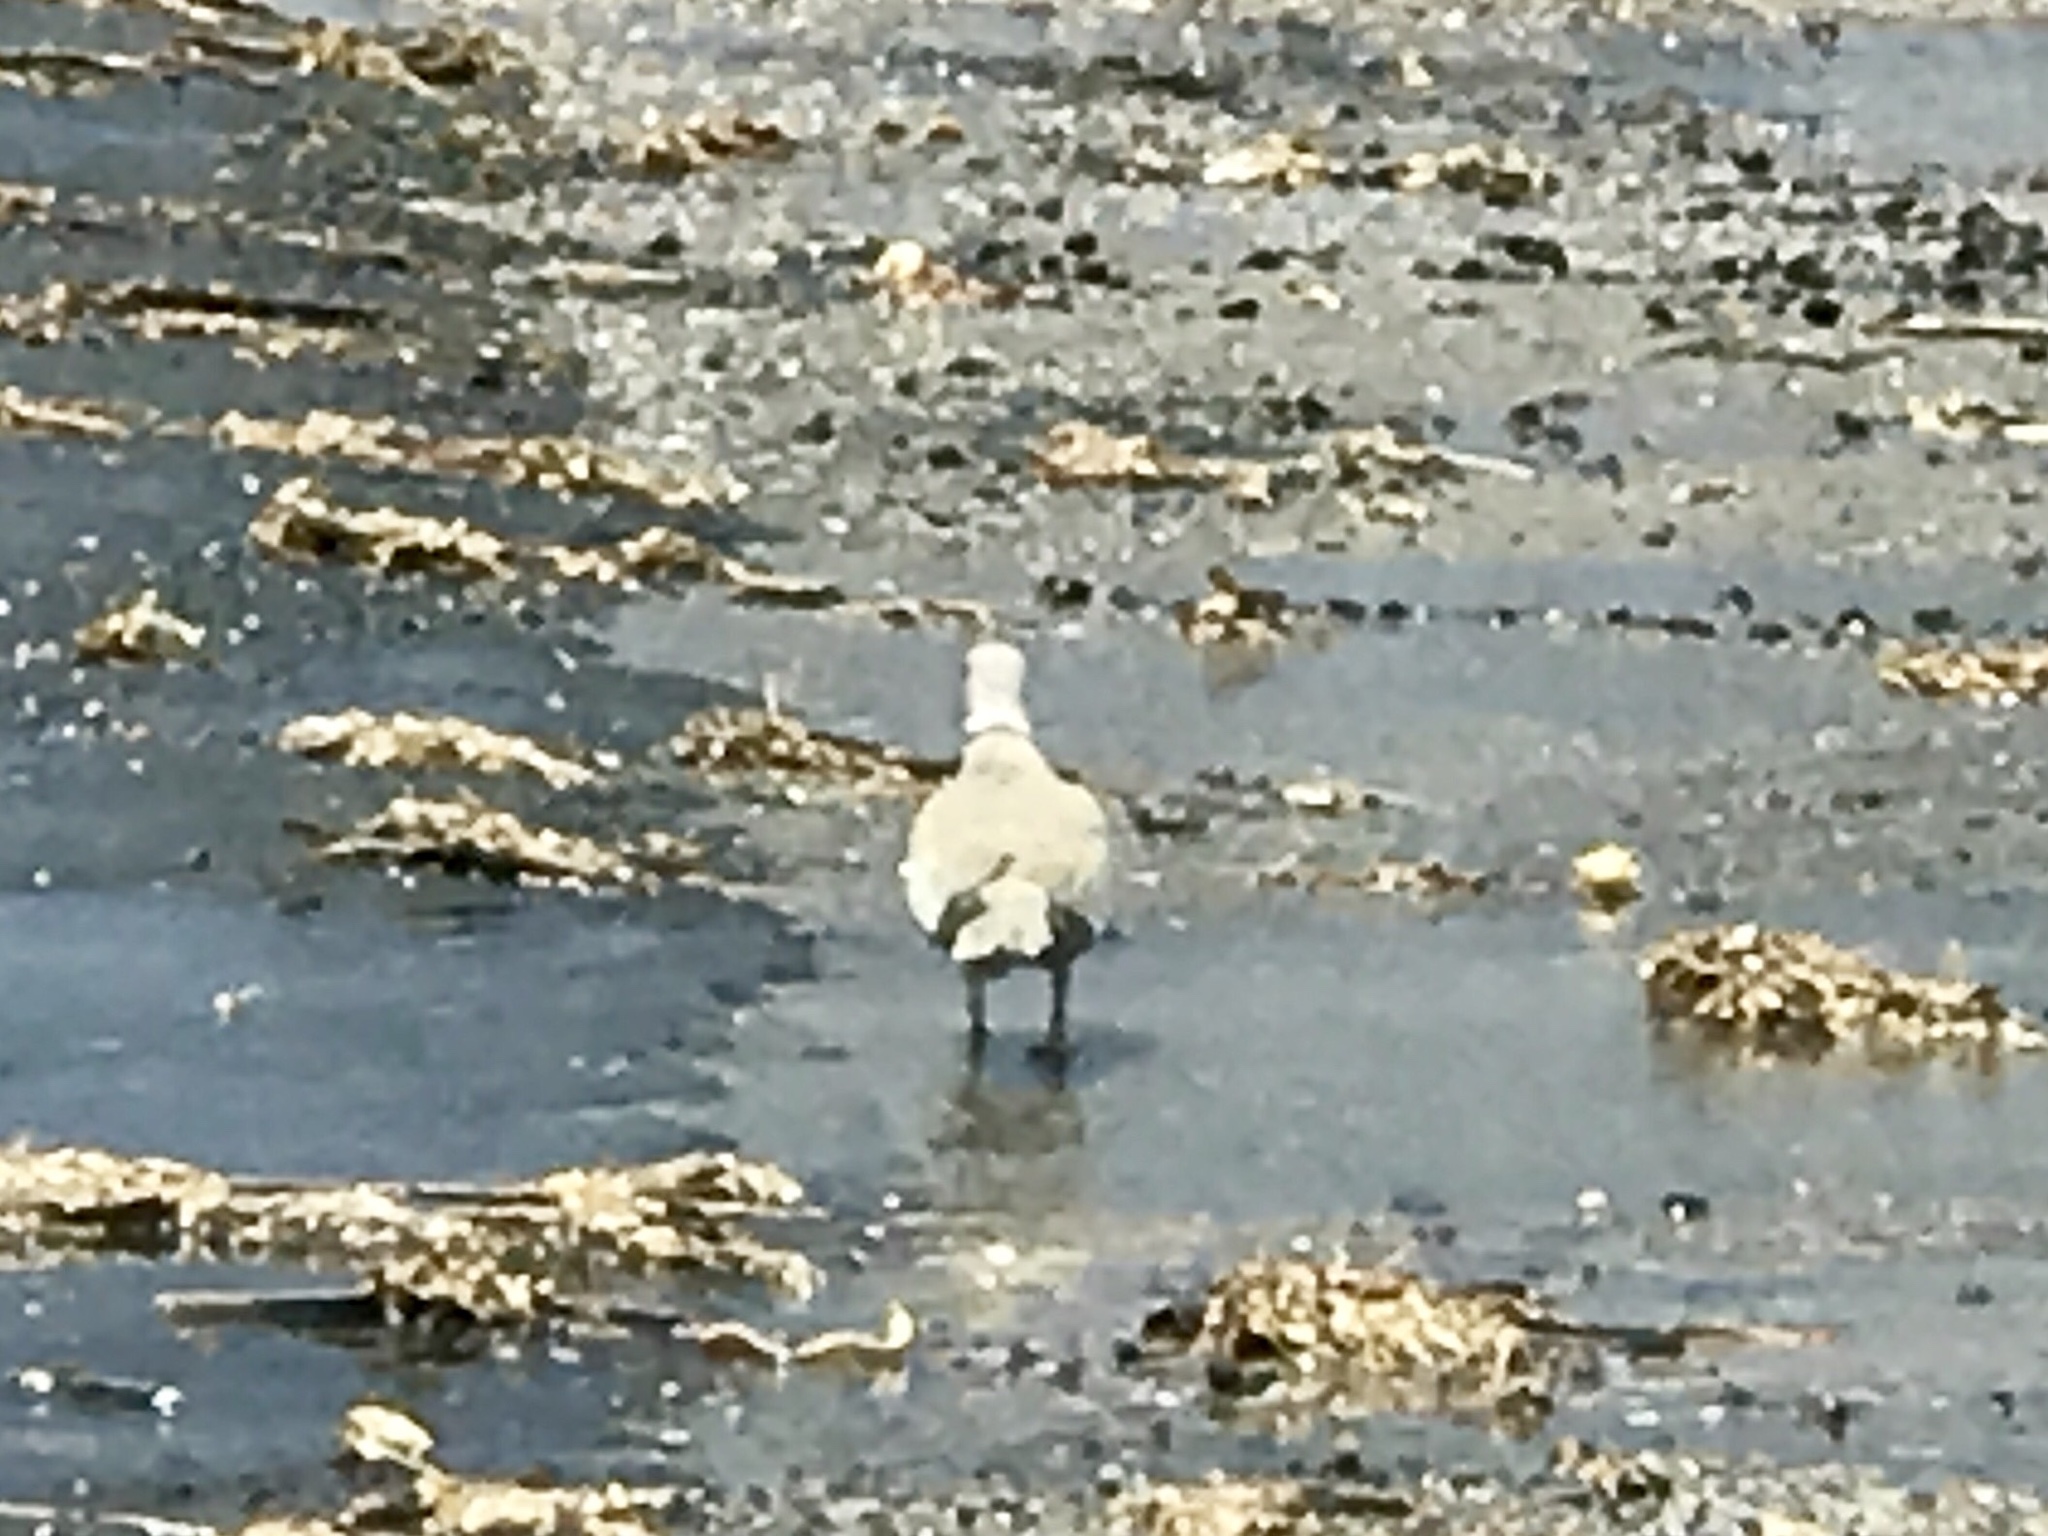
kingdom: Animalia
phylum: Chordata
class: Aves
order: Columbiformes
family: Columbidae
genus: Streptopelia
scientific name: Streptopelia decaocto
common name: Eurasian collared dove
